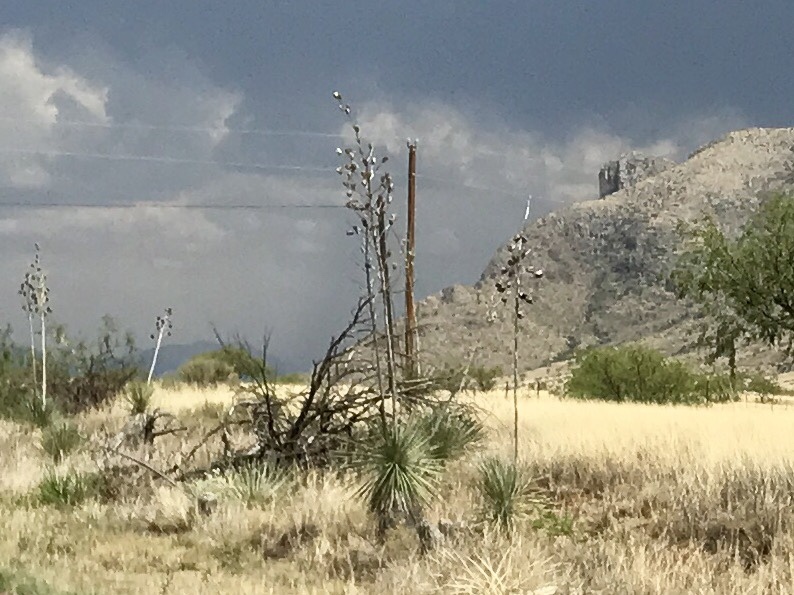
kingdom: Plantae
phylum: Tracheophyta
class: Liliopsida
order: Asparagales
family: Asparagaceae
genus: Yucca
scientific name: Yucca elata
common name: Palmella
